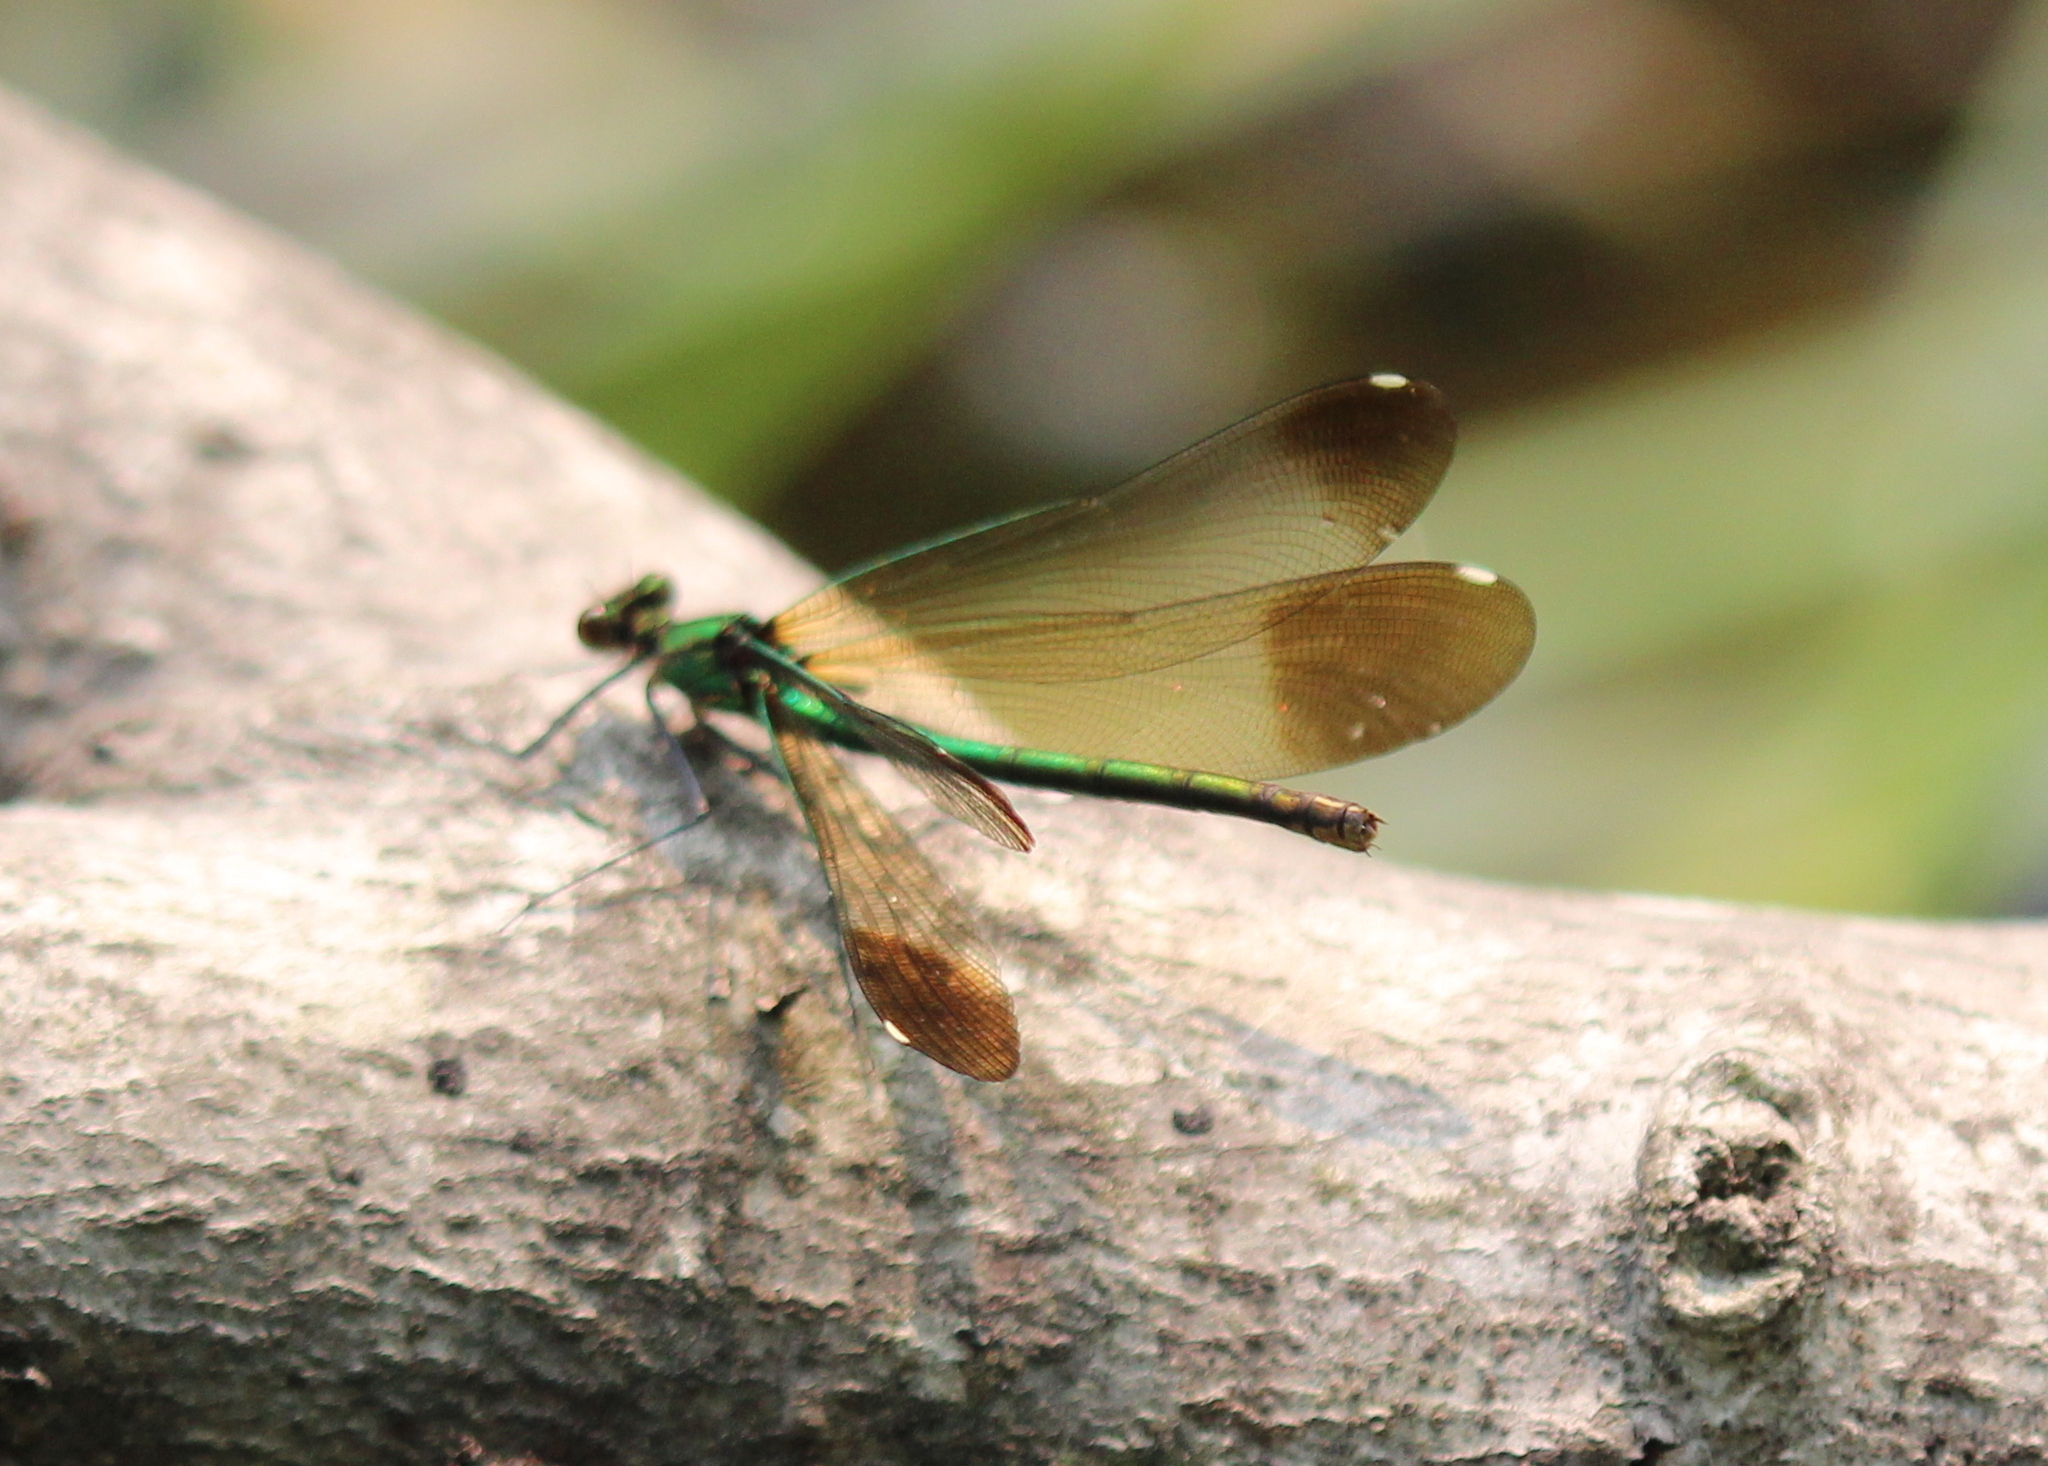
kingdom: Animalia
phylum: Arthropoda
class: Insecta
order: Odonata
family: Calopterygidae
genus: Calopteryx
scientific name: Calopteryx aequabilis
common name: River jewelwing
